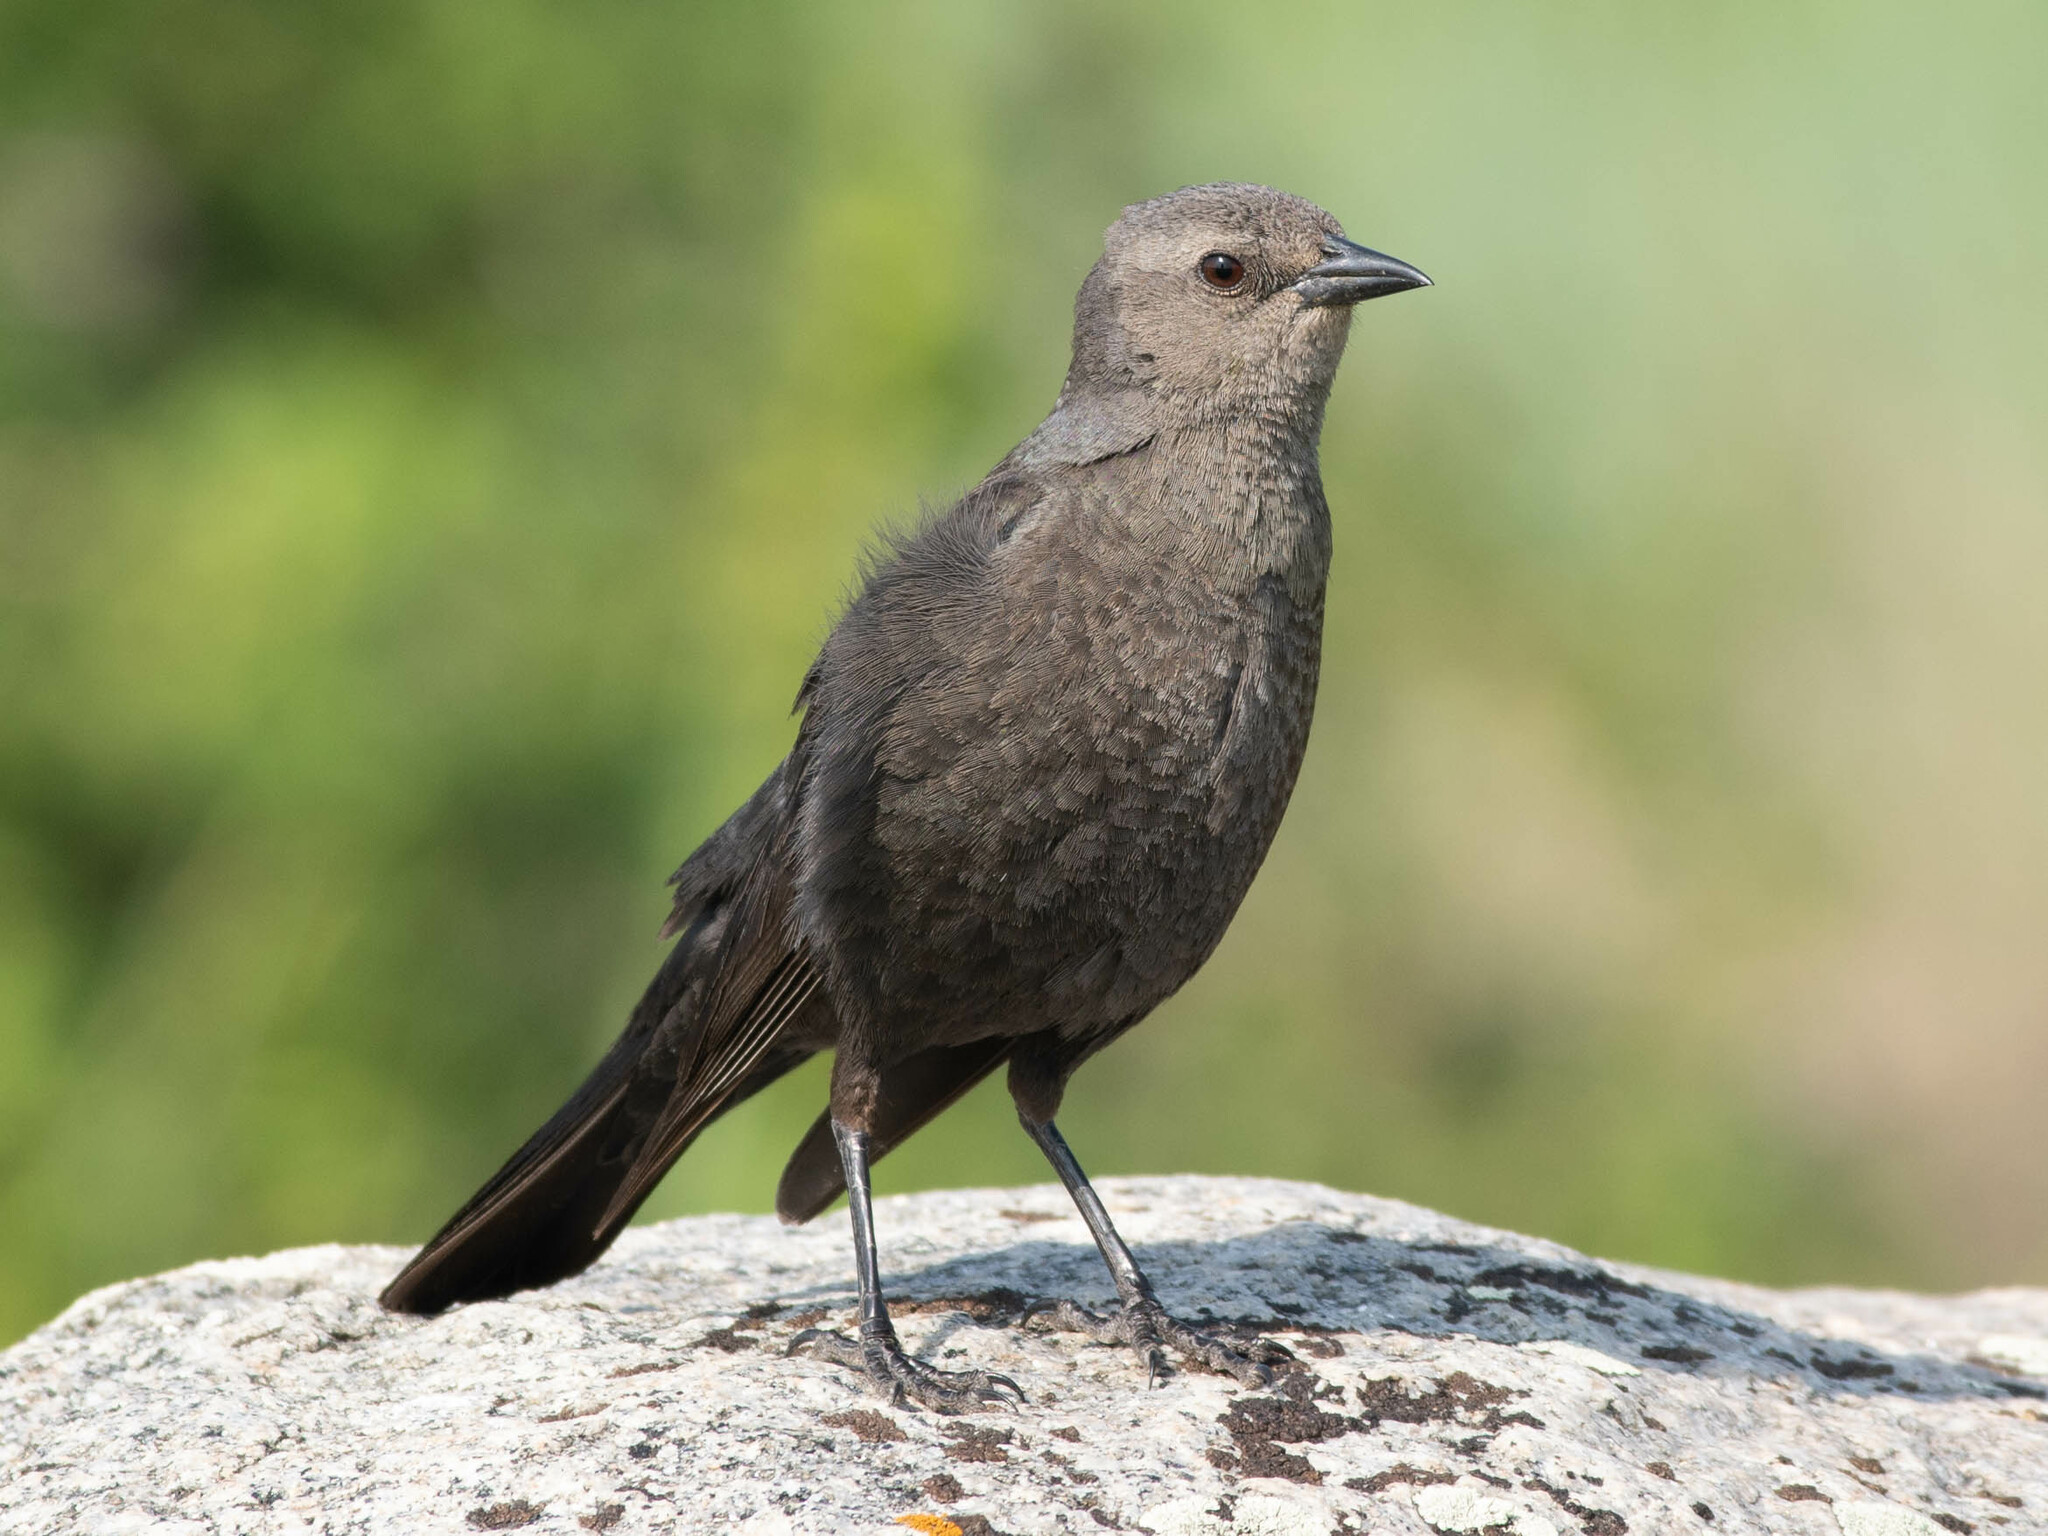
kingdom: Animalia
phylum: Chordata
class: Aves
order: Passeriformes
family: Icteridae
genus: Euphagus
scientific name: Euphagus cyanocephalus
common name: Brewer's blackbird
